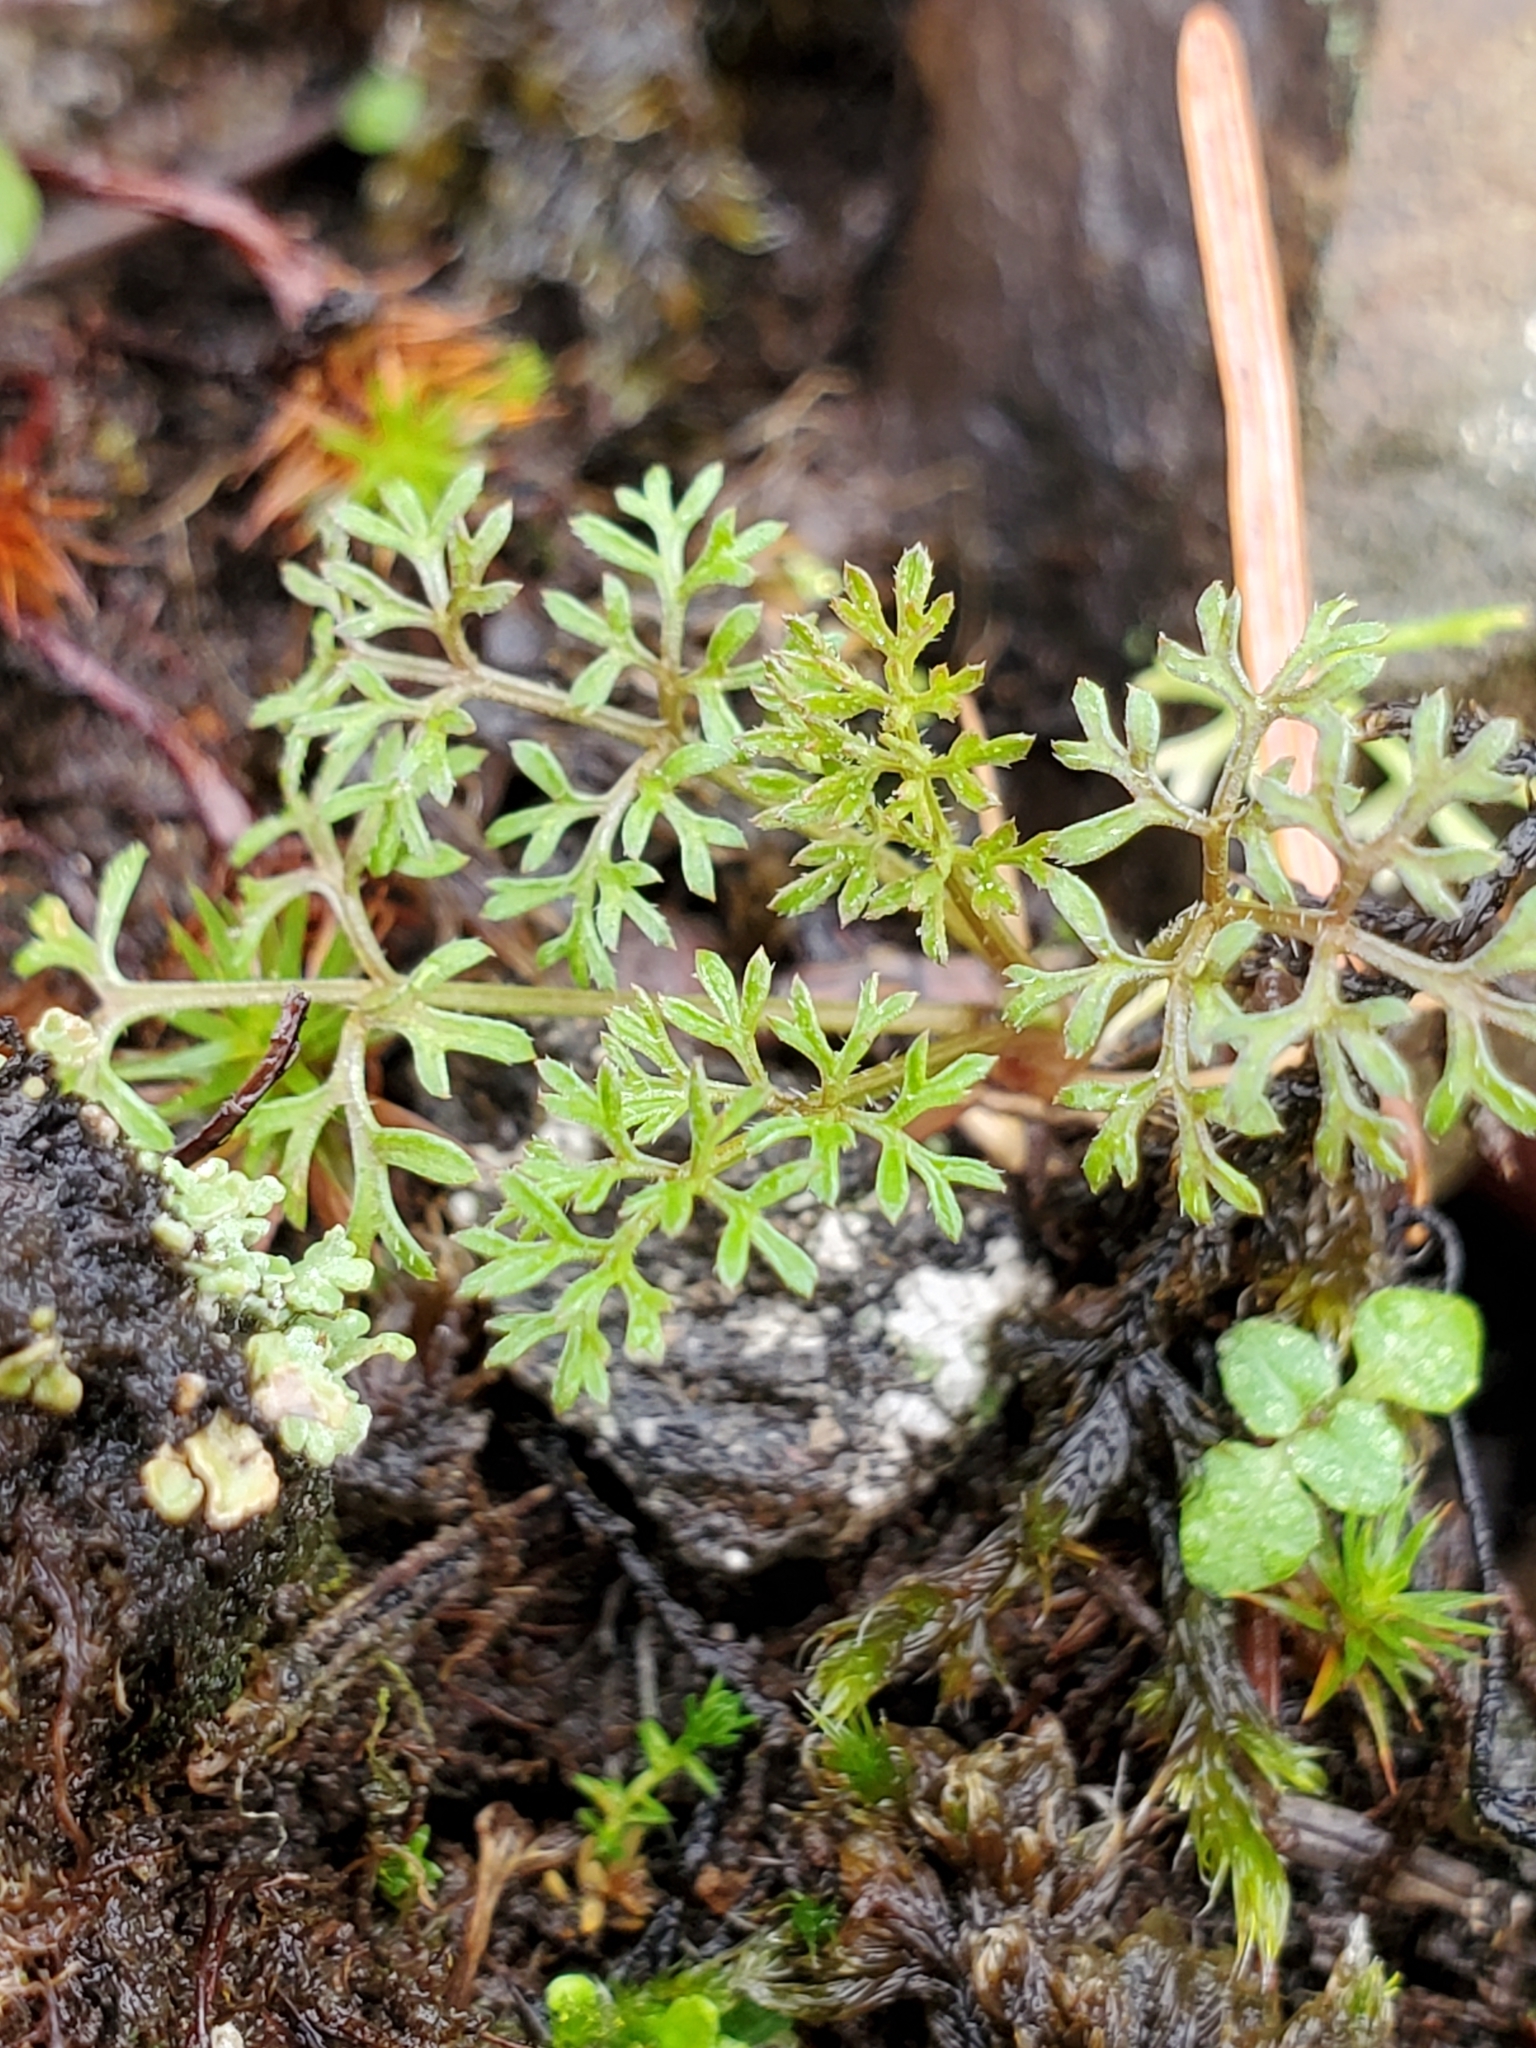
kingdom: Plantae
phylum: Tracheophyta
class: Magnoliopsida
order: Apiales
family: Apiaceae
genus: Daucus
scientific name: Daucus pusillus
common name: Southwest wild carrot
